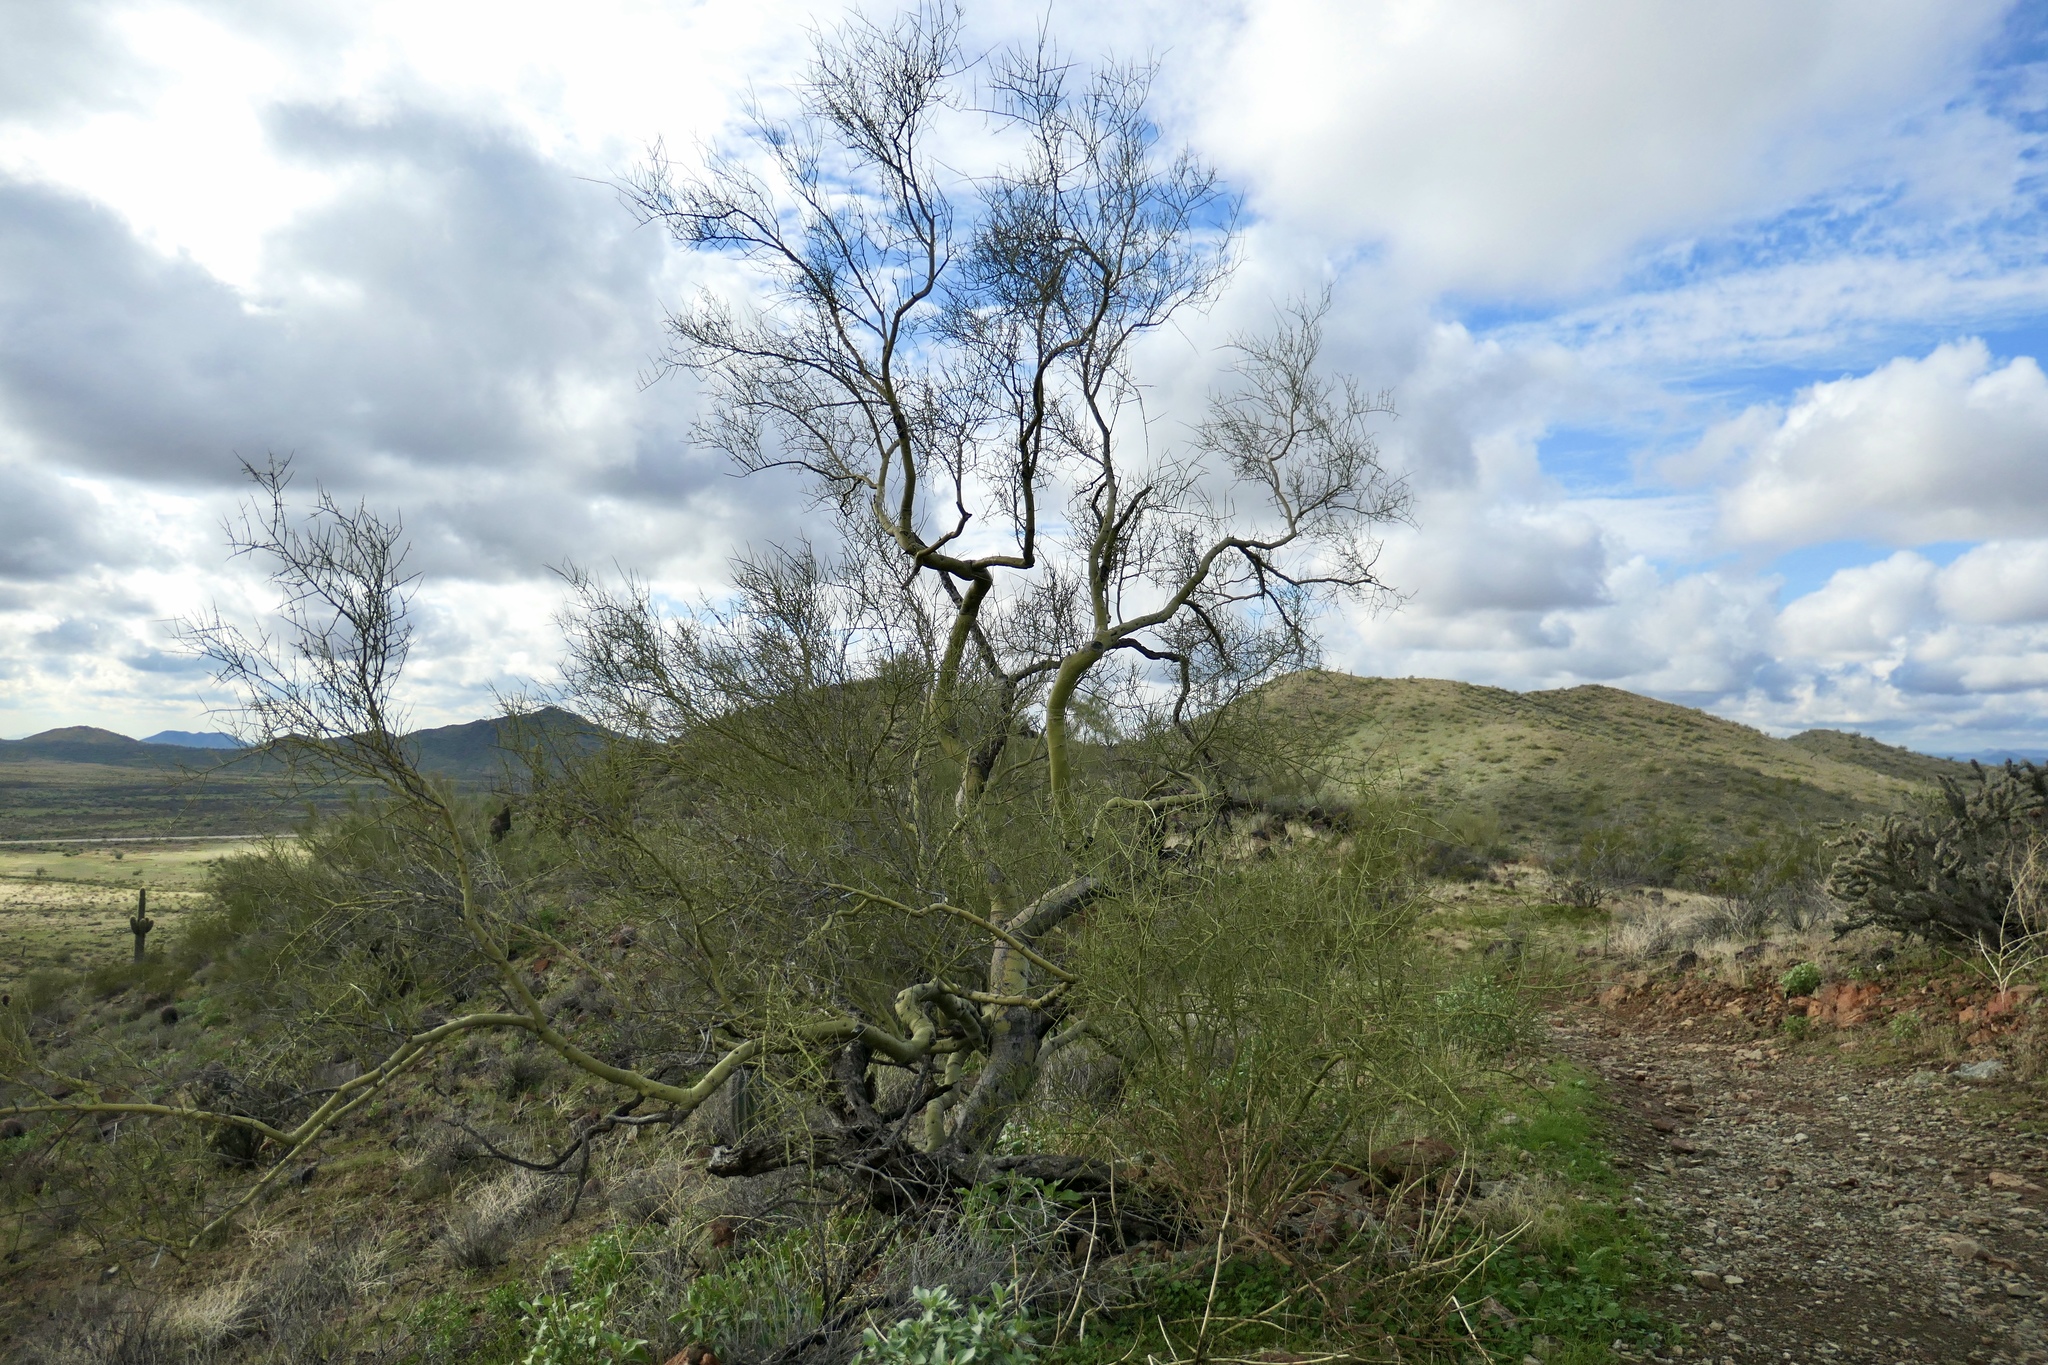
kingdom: Plantae
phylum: Tracheophyta
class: Magnoliopsida
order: Fabales
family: Fabaceae
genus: Parkinsonia
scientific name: Parkinsonia microphylla
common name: Yellow paloverde
